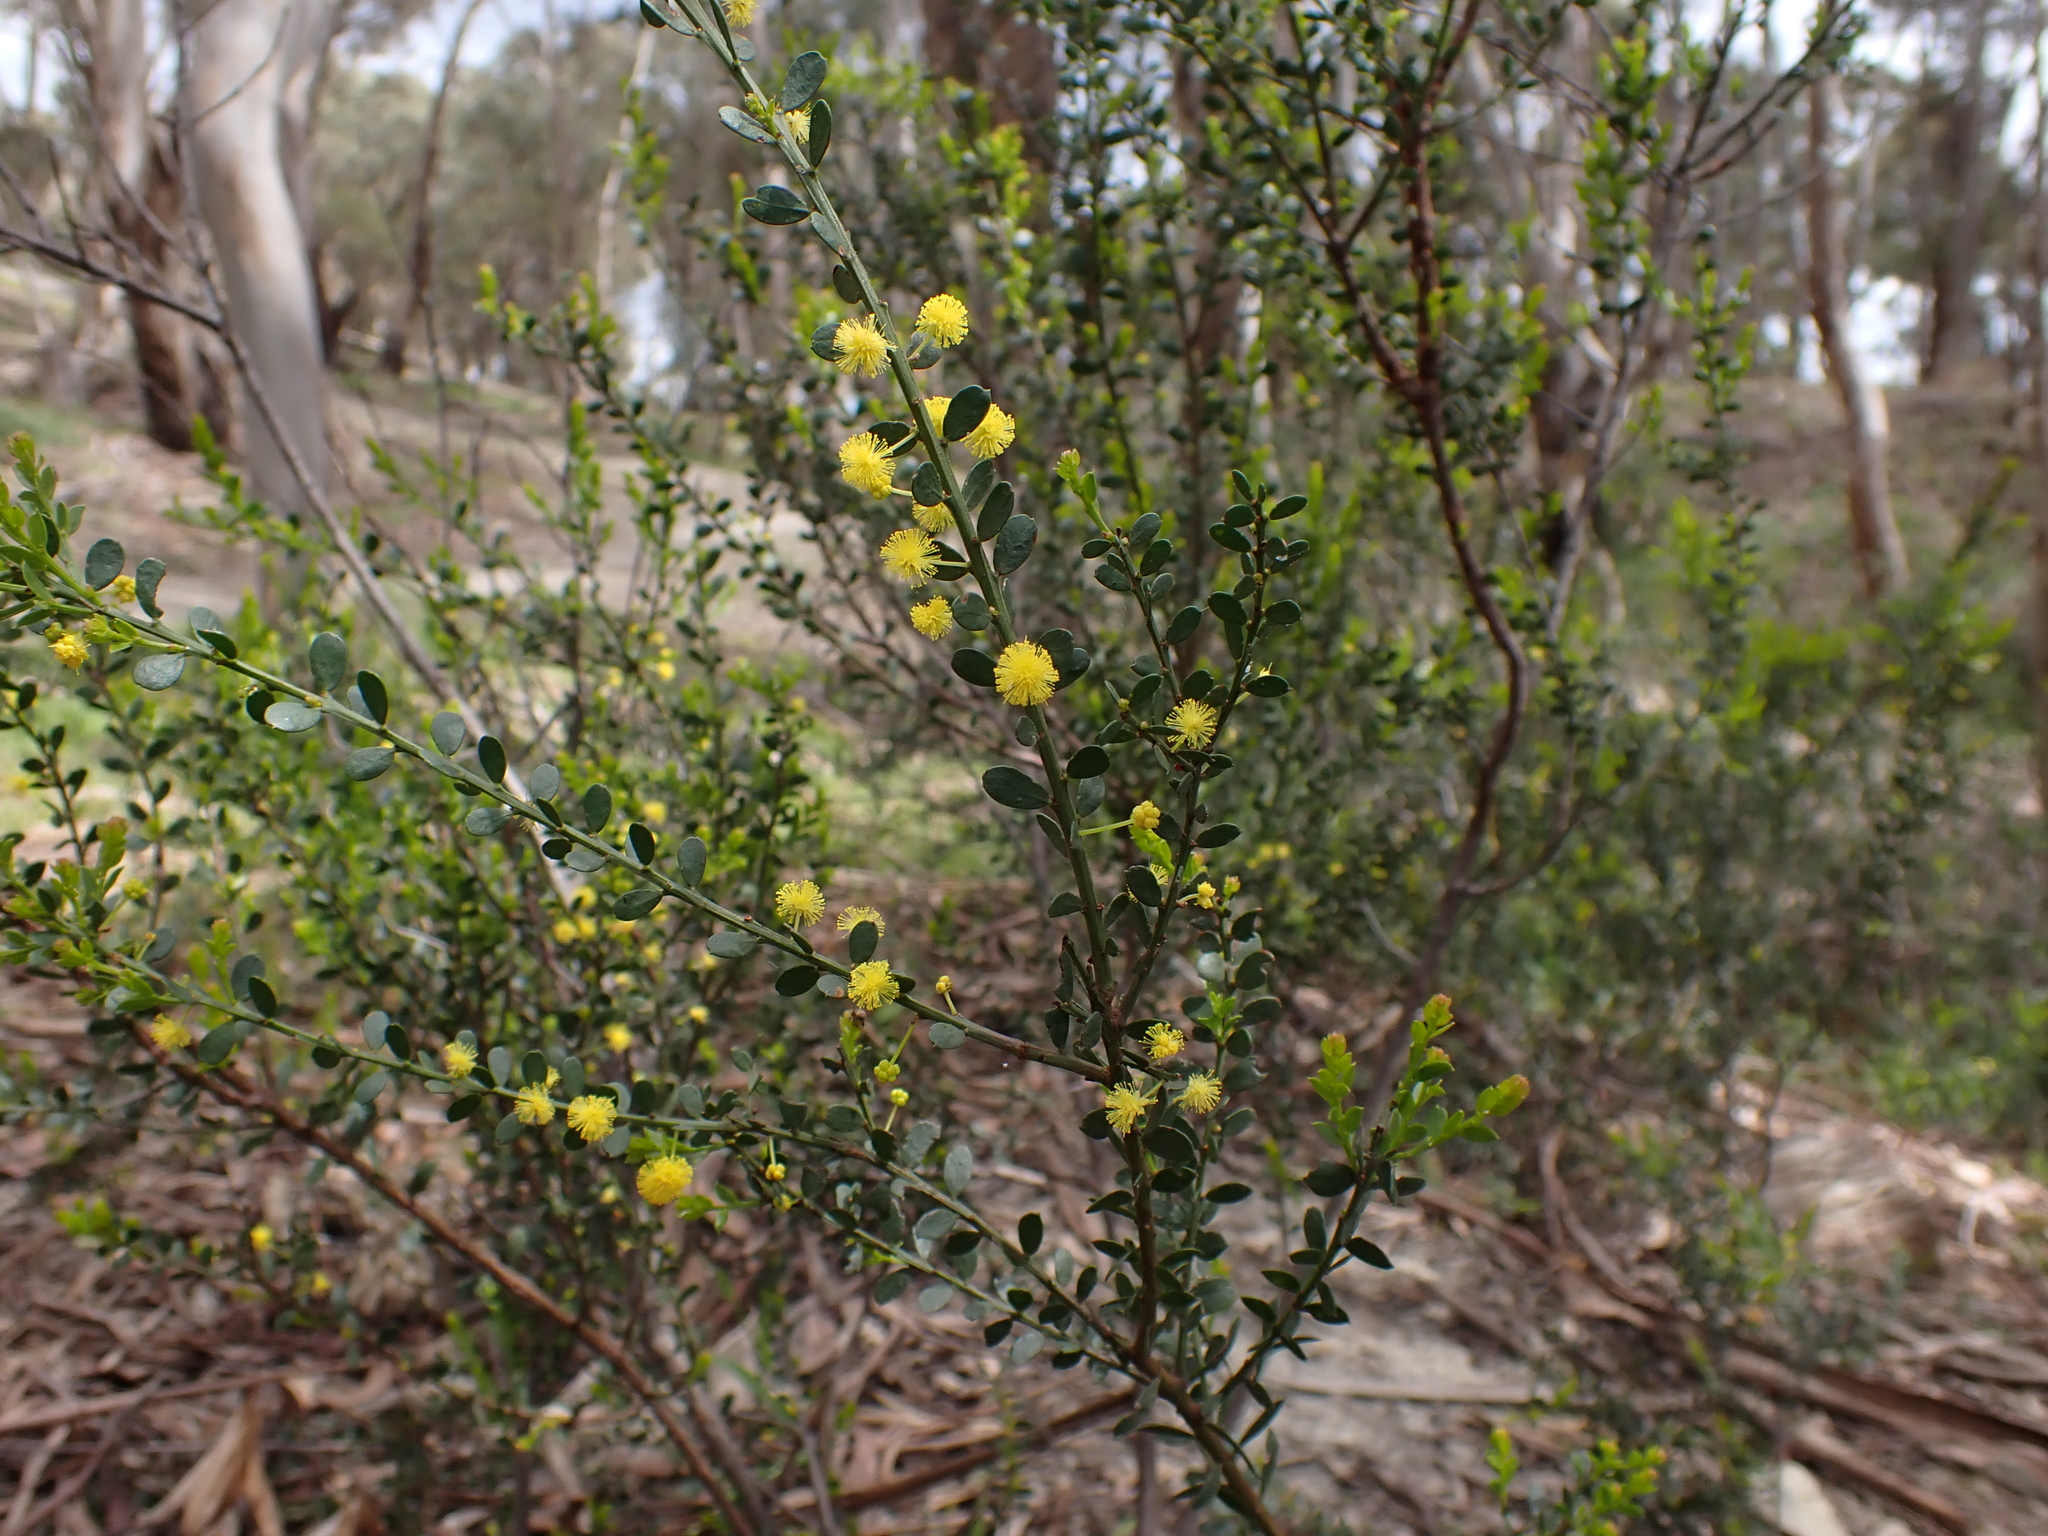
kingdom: Plantae
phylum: Tracheophyta
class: Magnoliopsida
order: Fabales
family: Fabaceae
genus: Acacia
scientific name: Acacia acinacea
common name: Gold-dust acacia
